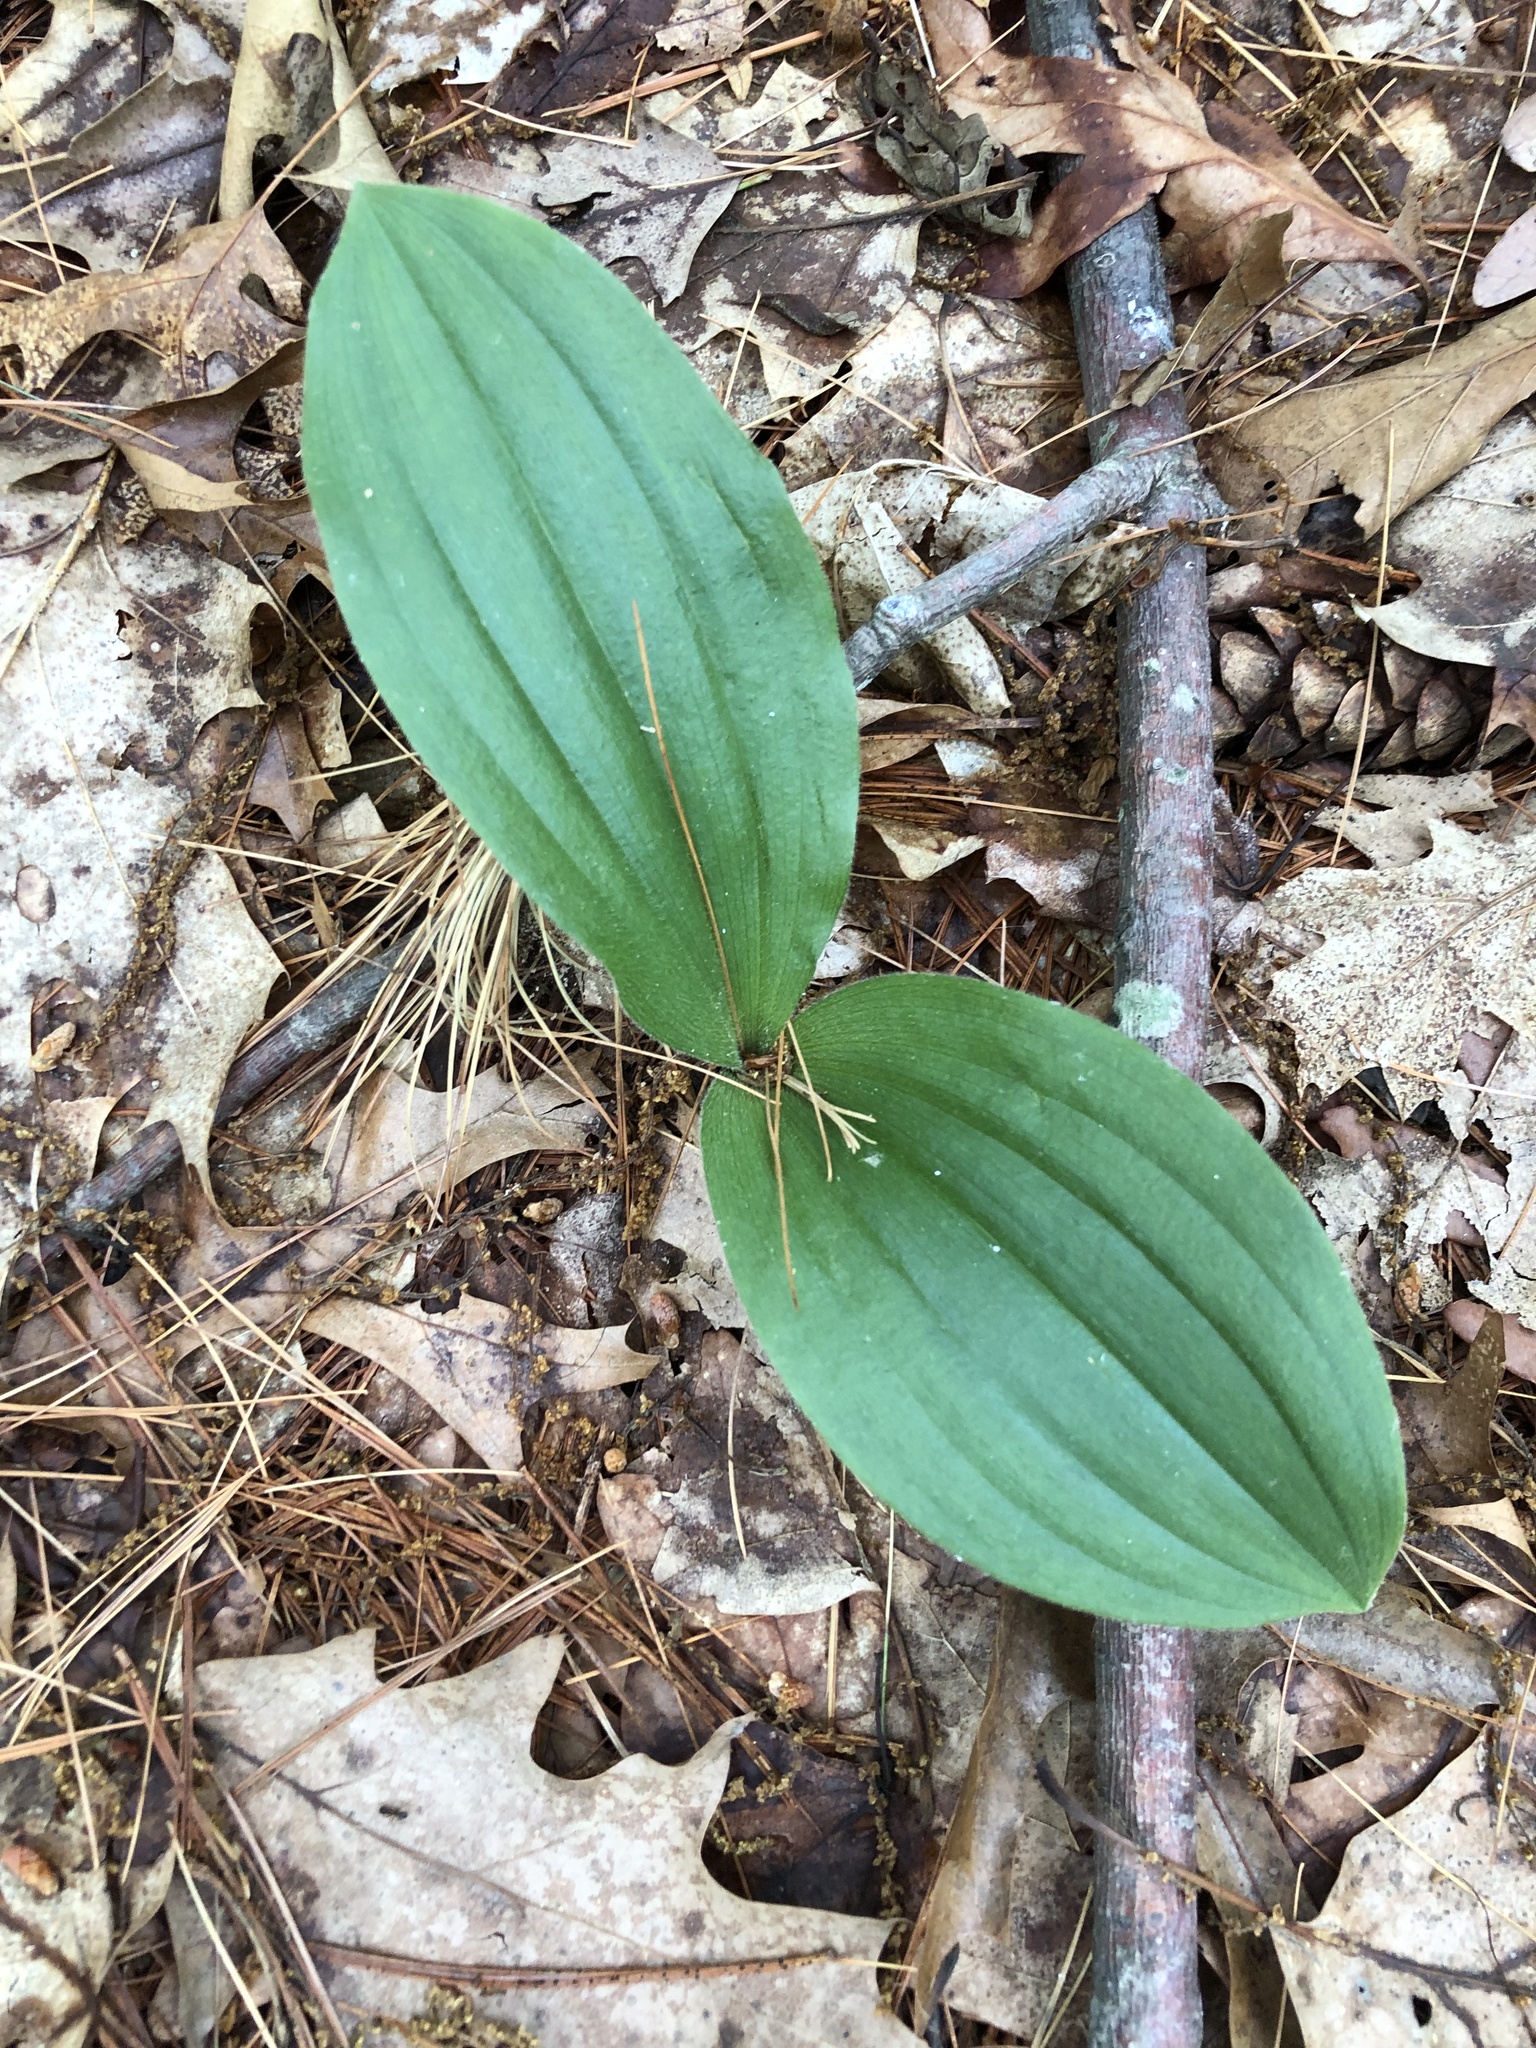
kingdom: Plantae
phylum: Tracheophyta
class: Liliopsida
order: Asparagales
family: Orchidaceae
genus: Cypripedium
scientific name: Cypripedium acaule
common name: Pink lady's-slipper
